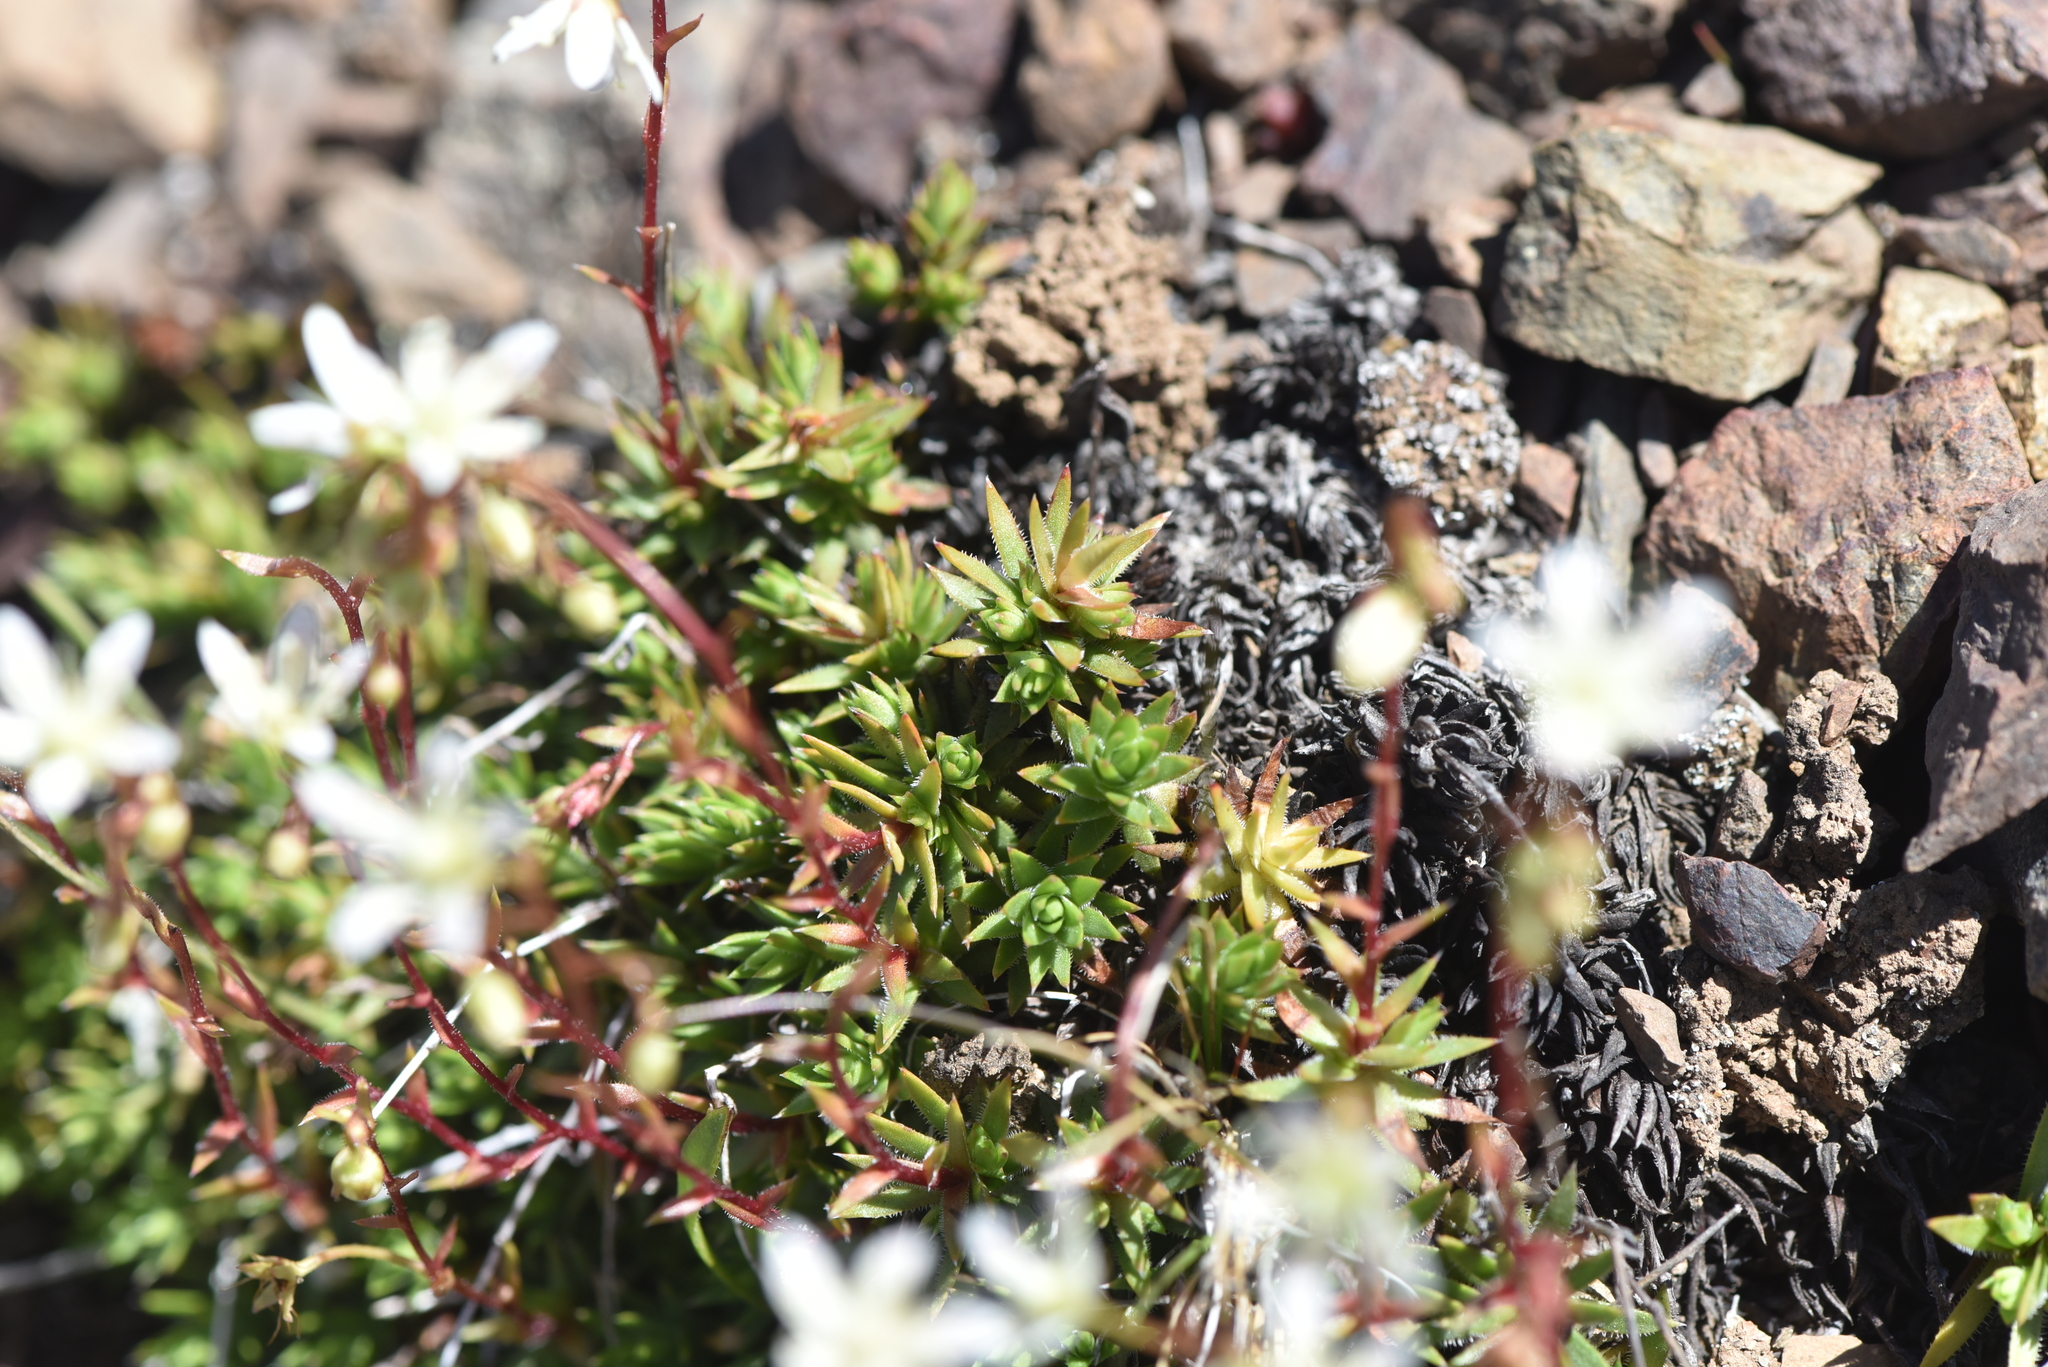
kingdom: Plantae
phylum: Tracheophyta
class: Magnoliopsida
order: Saxifragales
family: Saxifragaceae
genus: Saxifraga
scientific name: Saxifraga bronchialis
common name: Matted saxifrage
